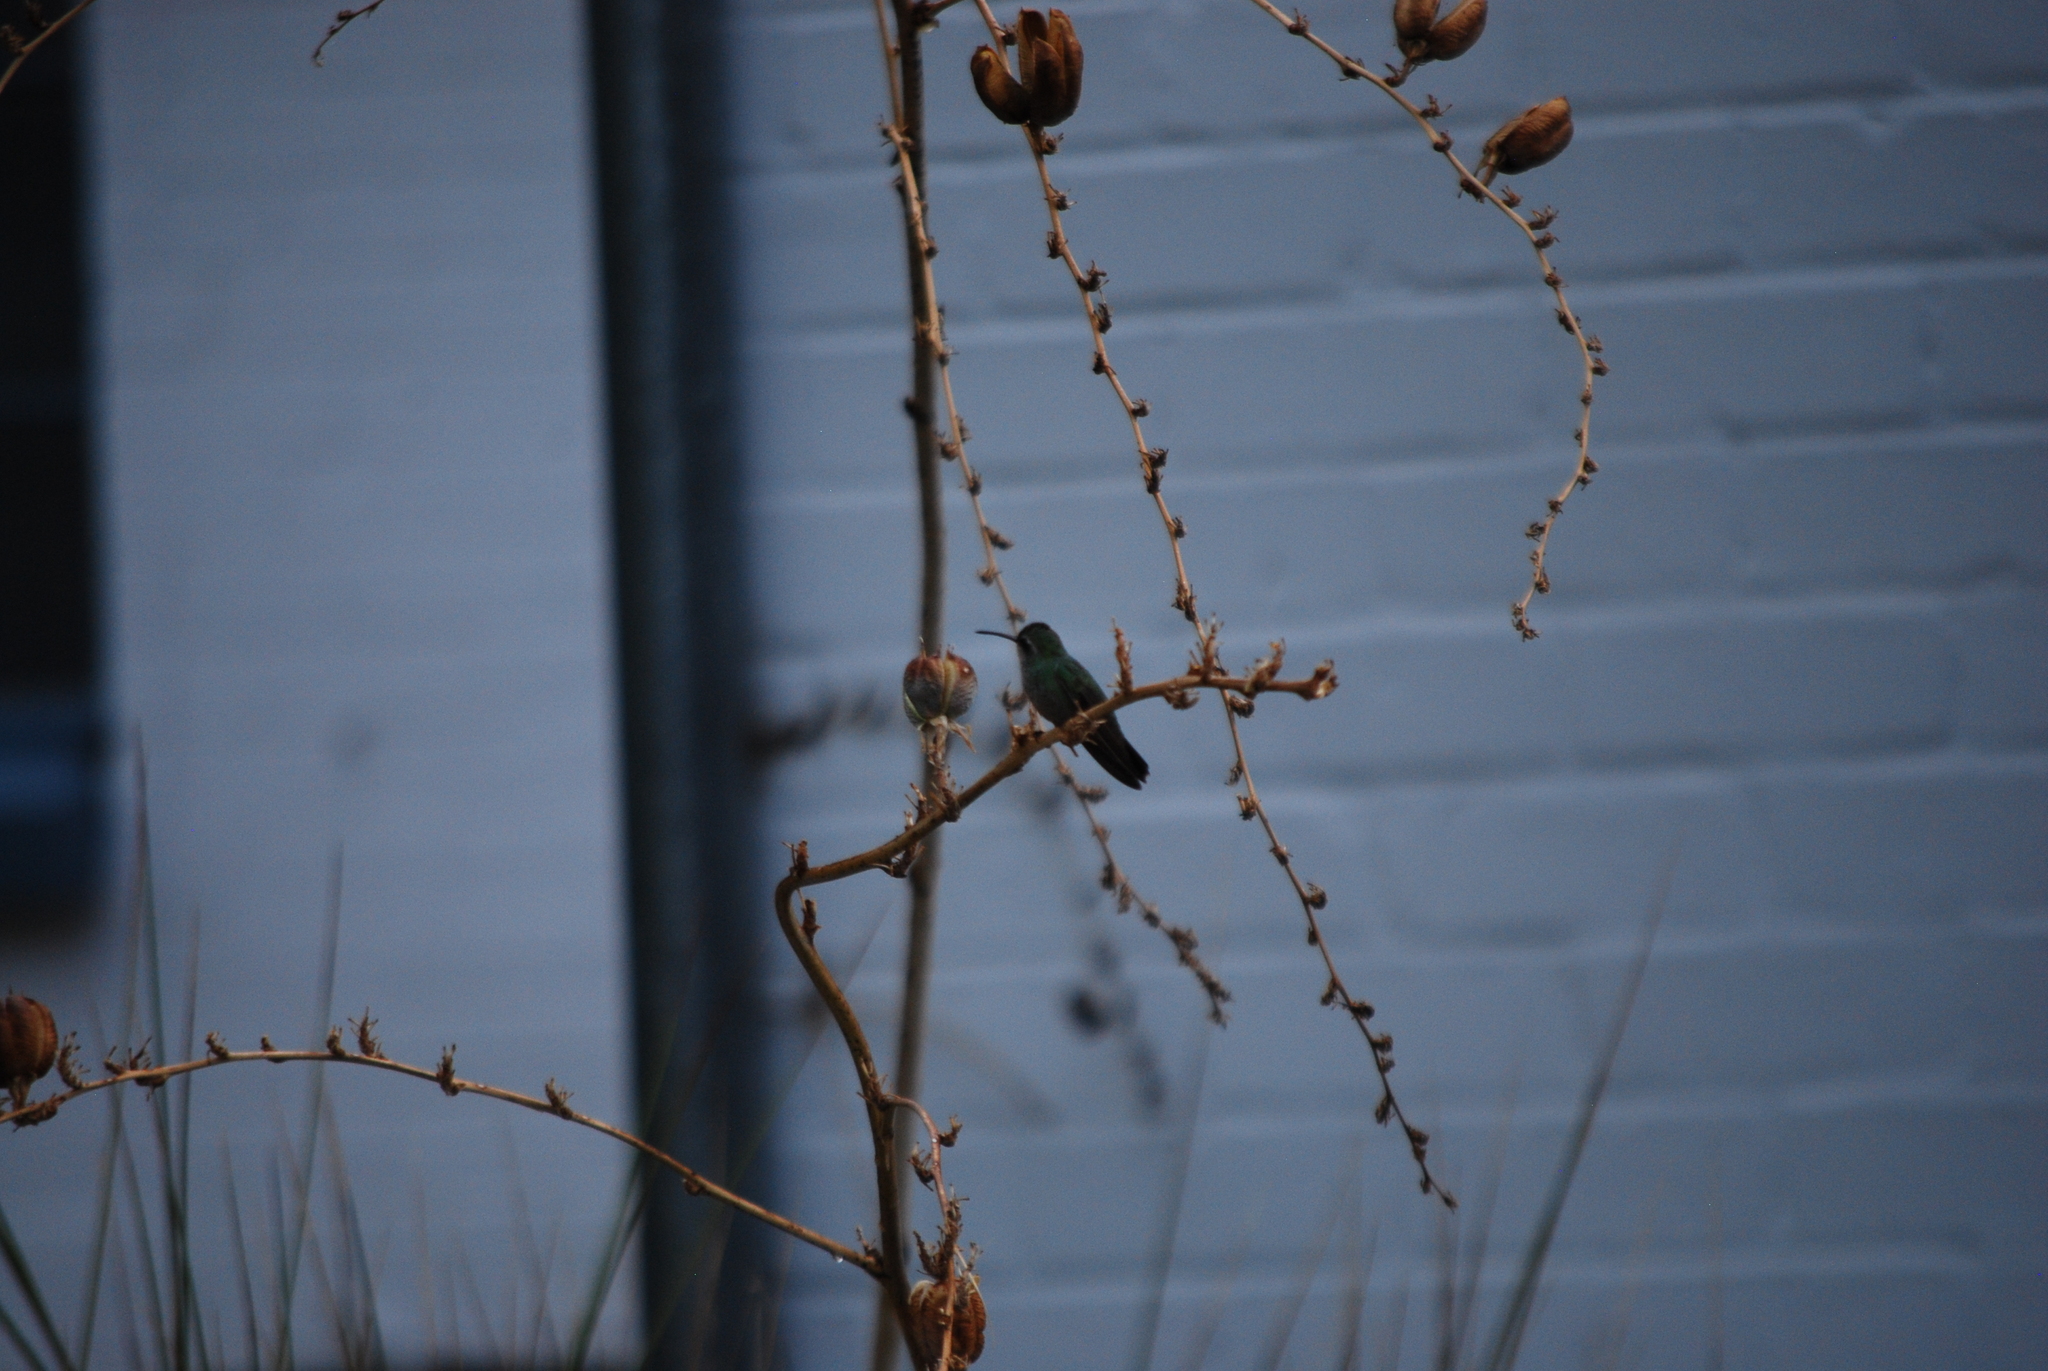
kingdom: Animalia
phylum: Chordata
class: Aves
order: Apodiformes
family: Trochilidae
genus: Cynanthus
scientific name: Cynanthus latirostris
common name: Broad-billed hummingbird
